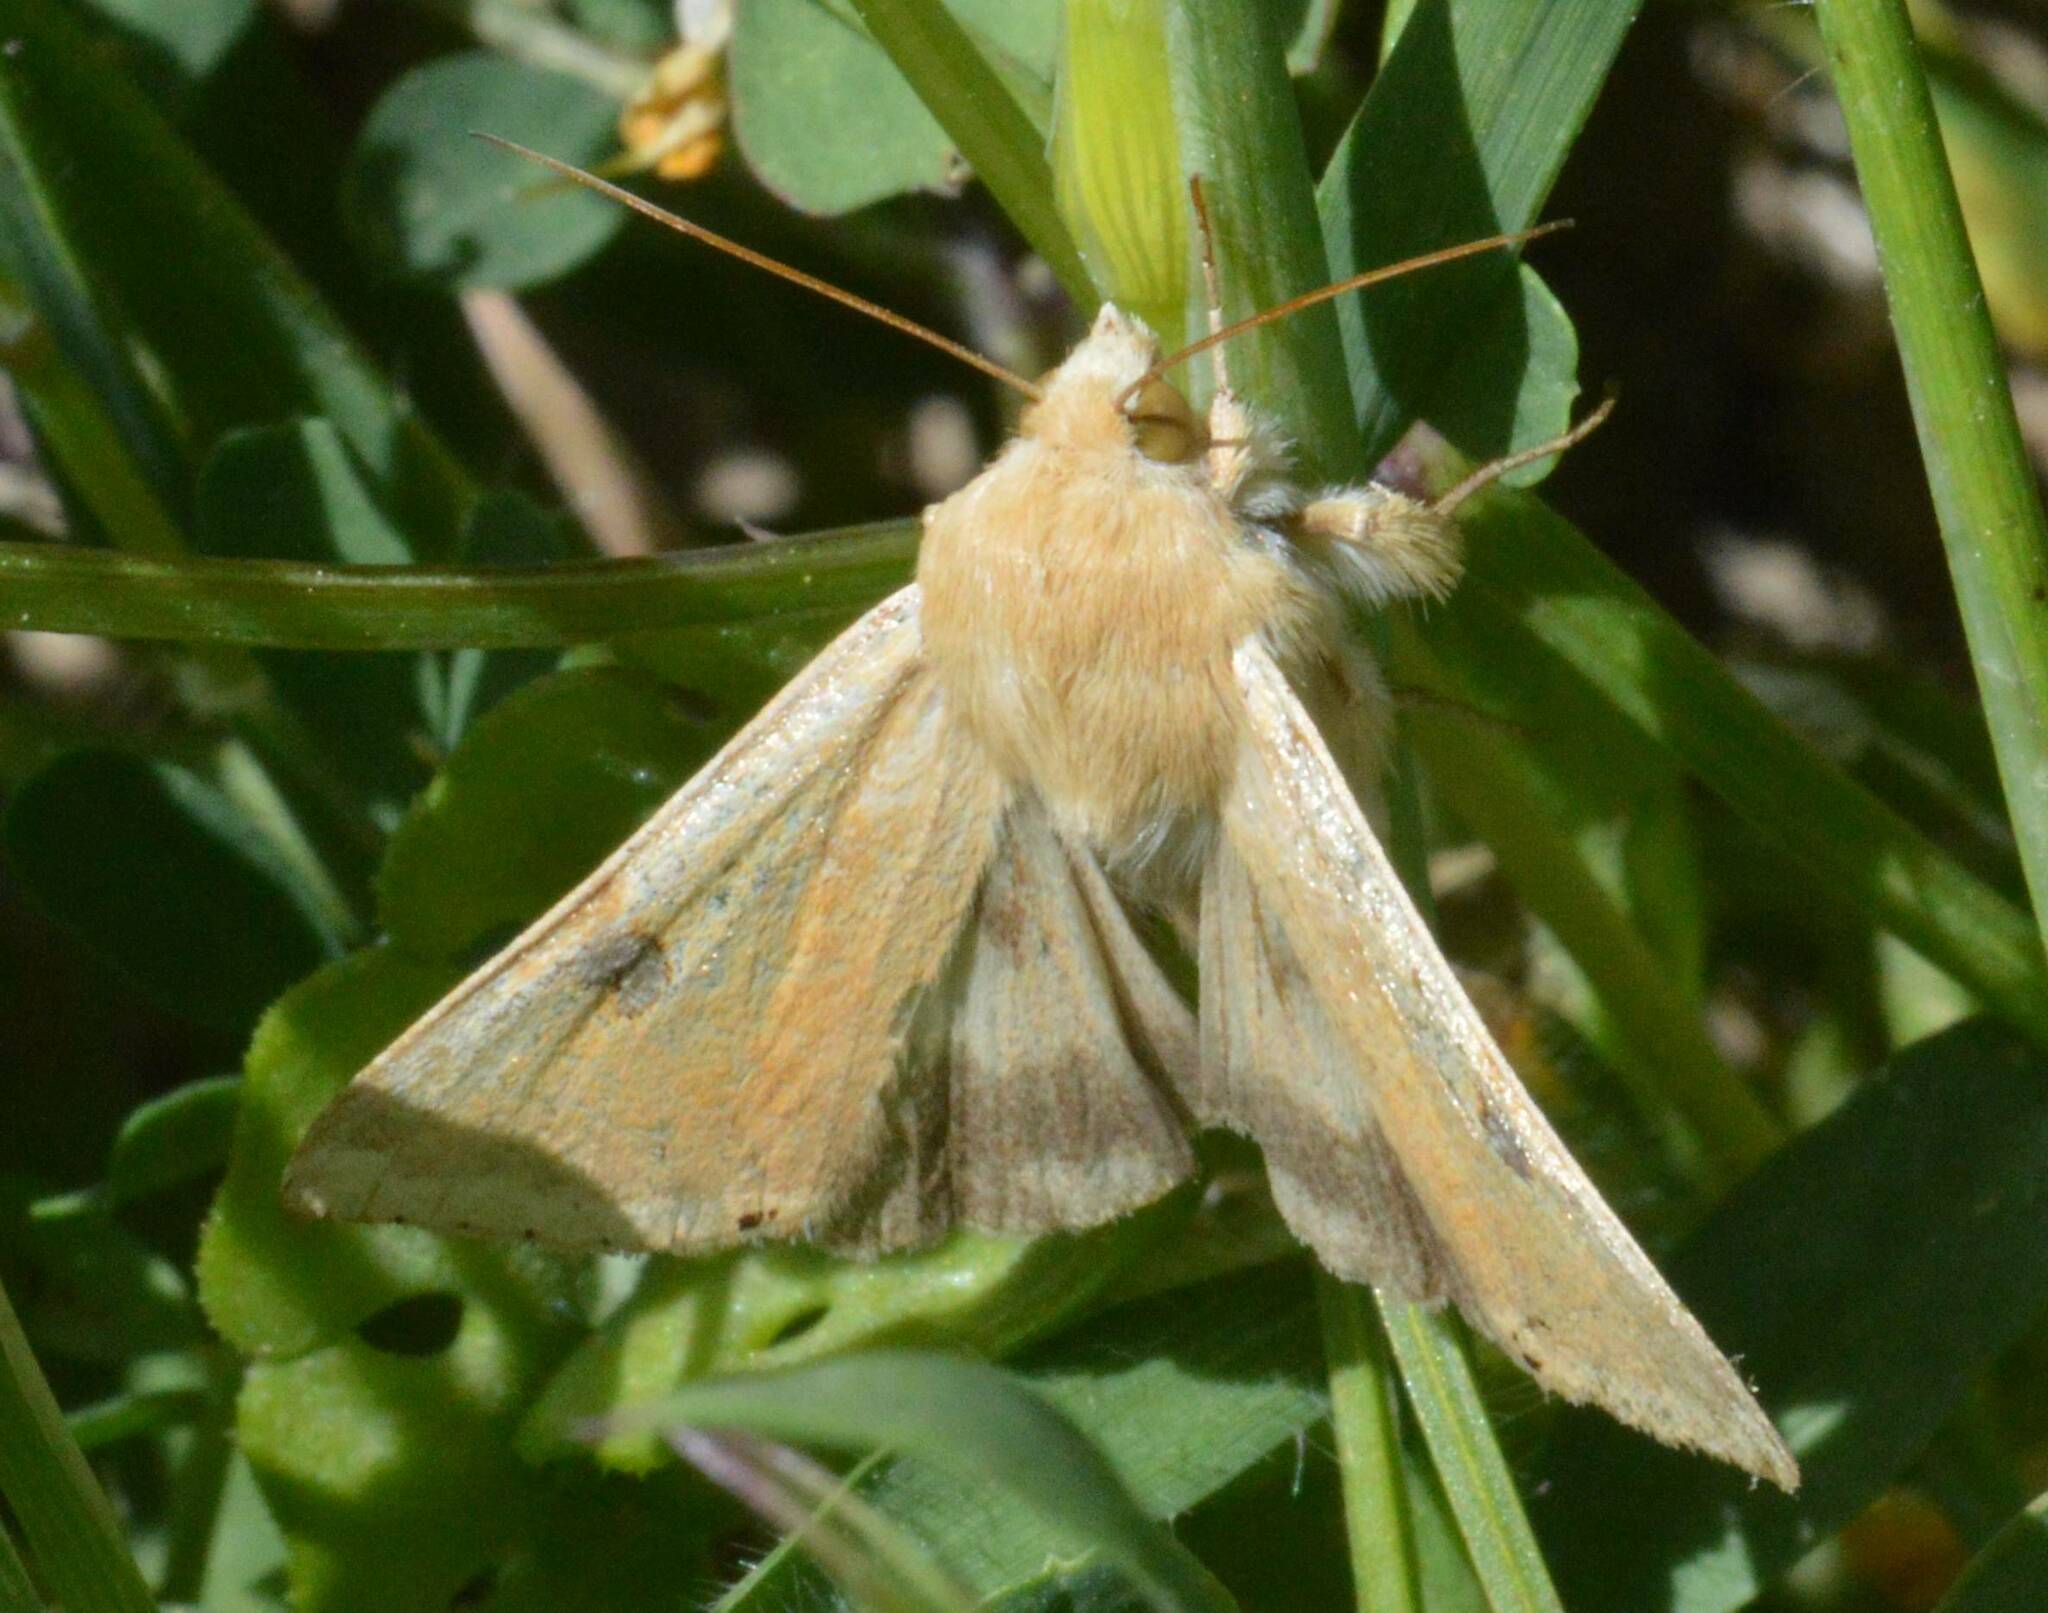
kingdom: Animalia
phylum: Arthropoda
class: Insecta
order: Lepidoptera
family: Noctuidae
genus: Heliothis
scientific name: Heliothis peltigera
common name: Bordered straw
